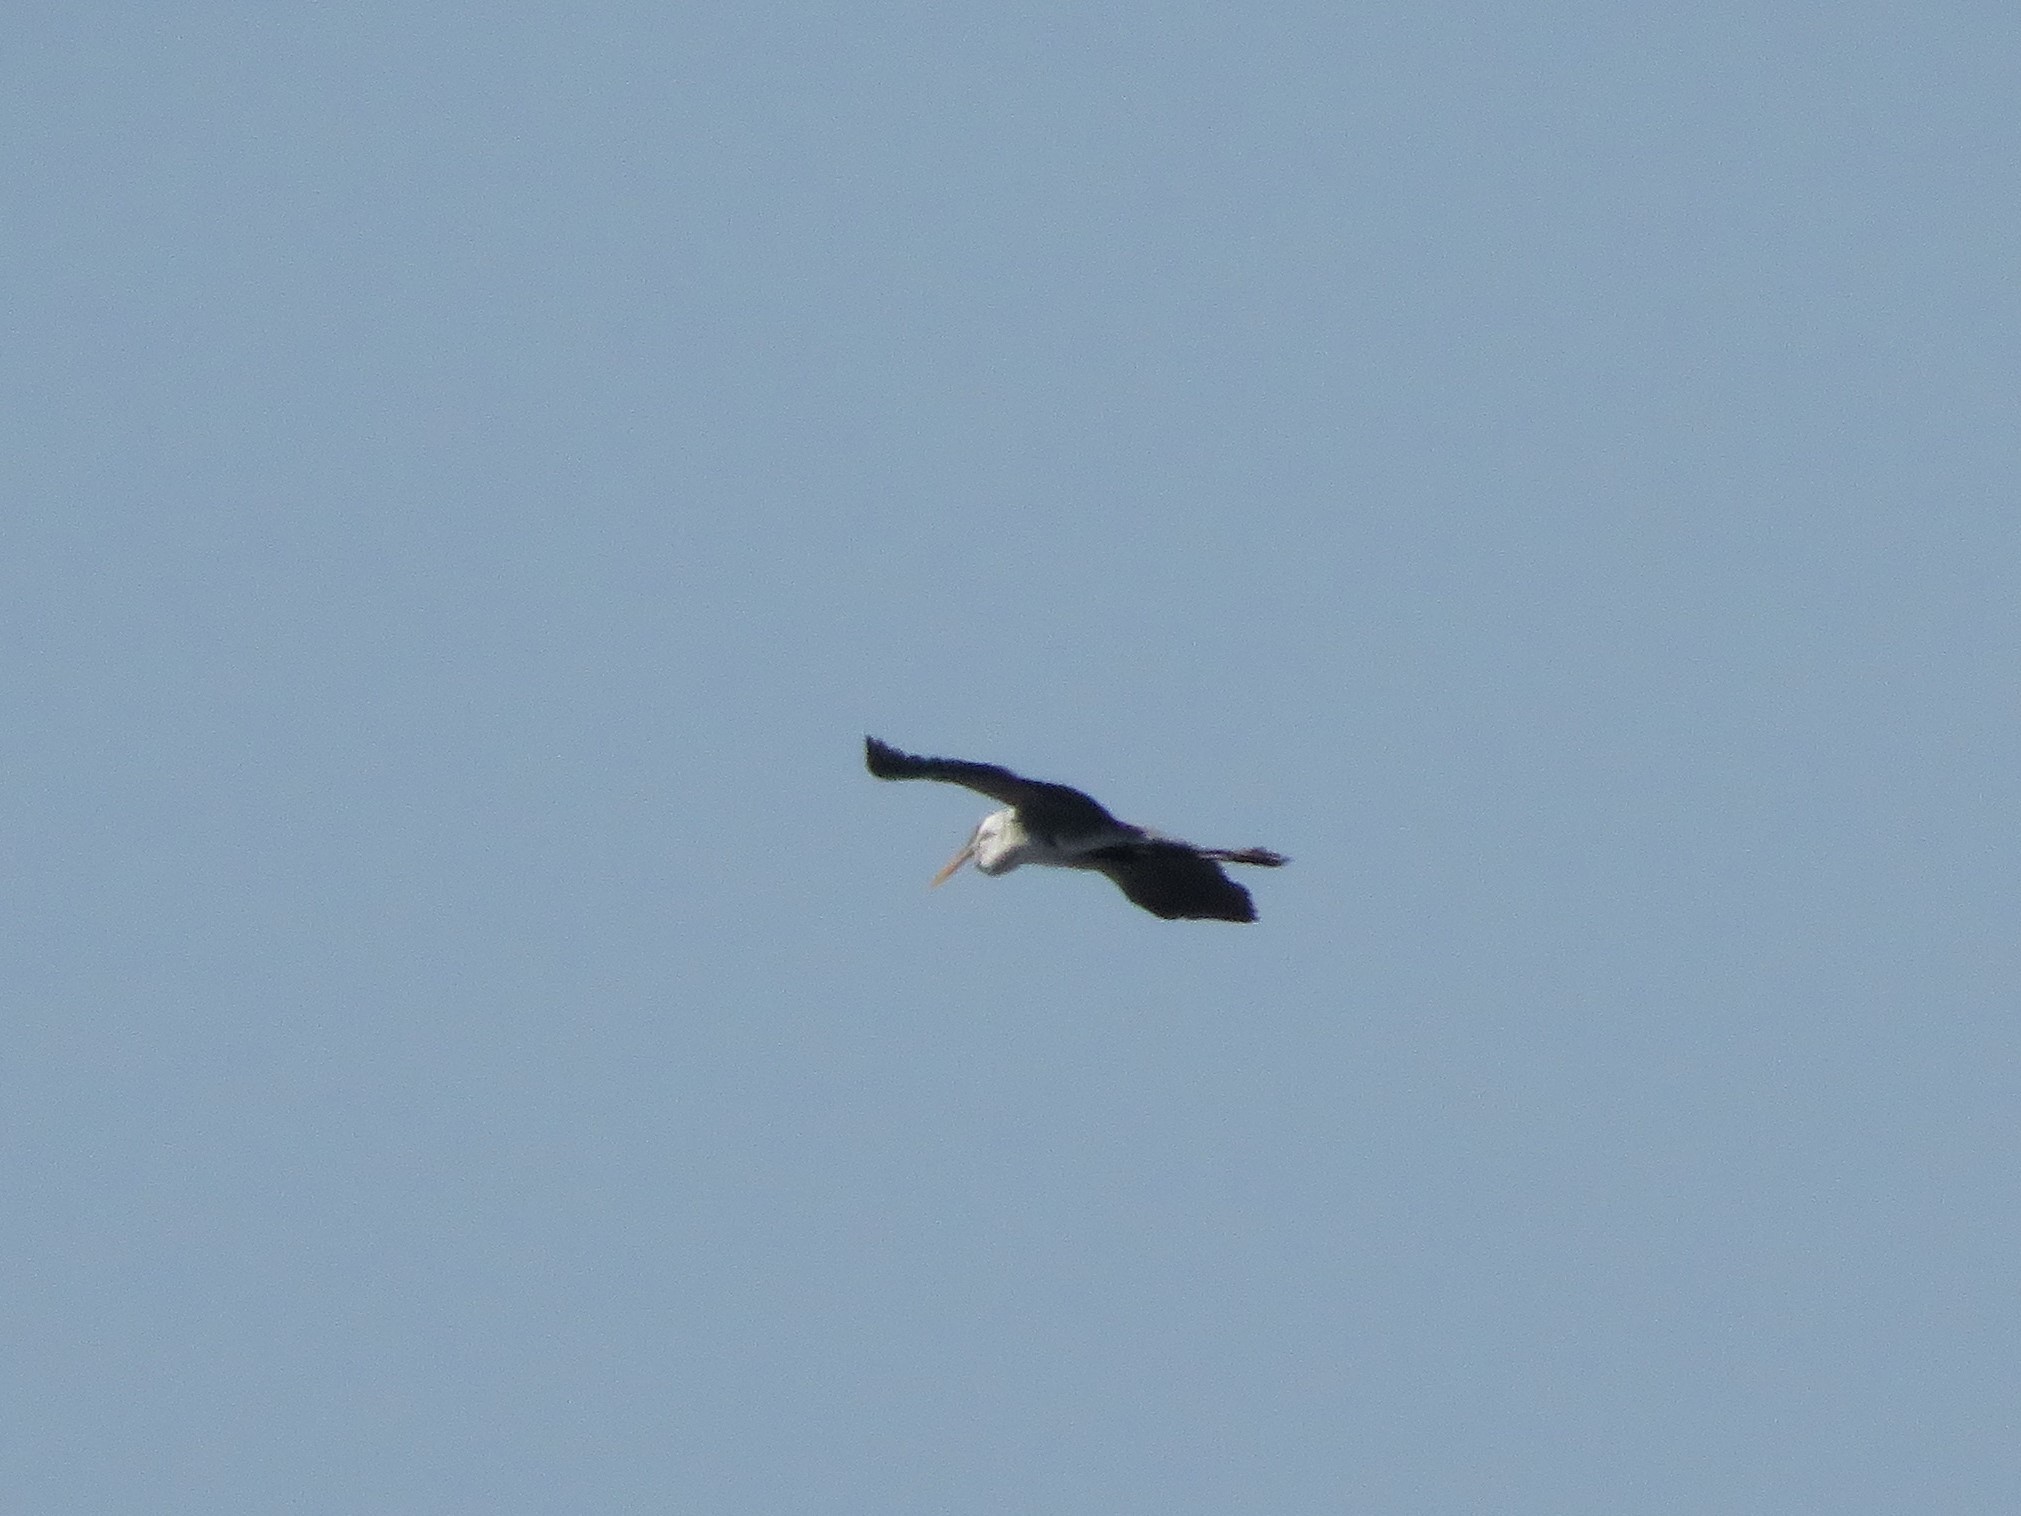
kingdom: Animalia
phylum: Chordata
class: Aves
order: Pelecaniformes
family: Ardeidae
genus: Ardea
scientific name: Ardea cocoi
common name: Cocoi heron
